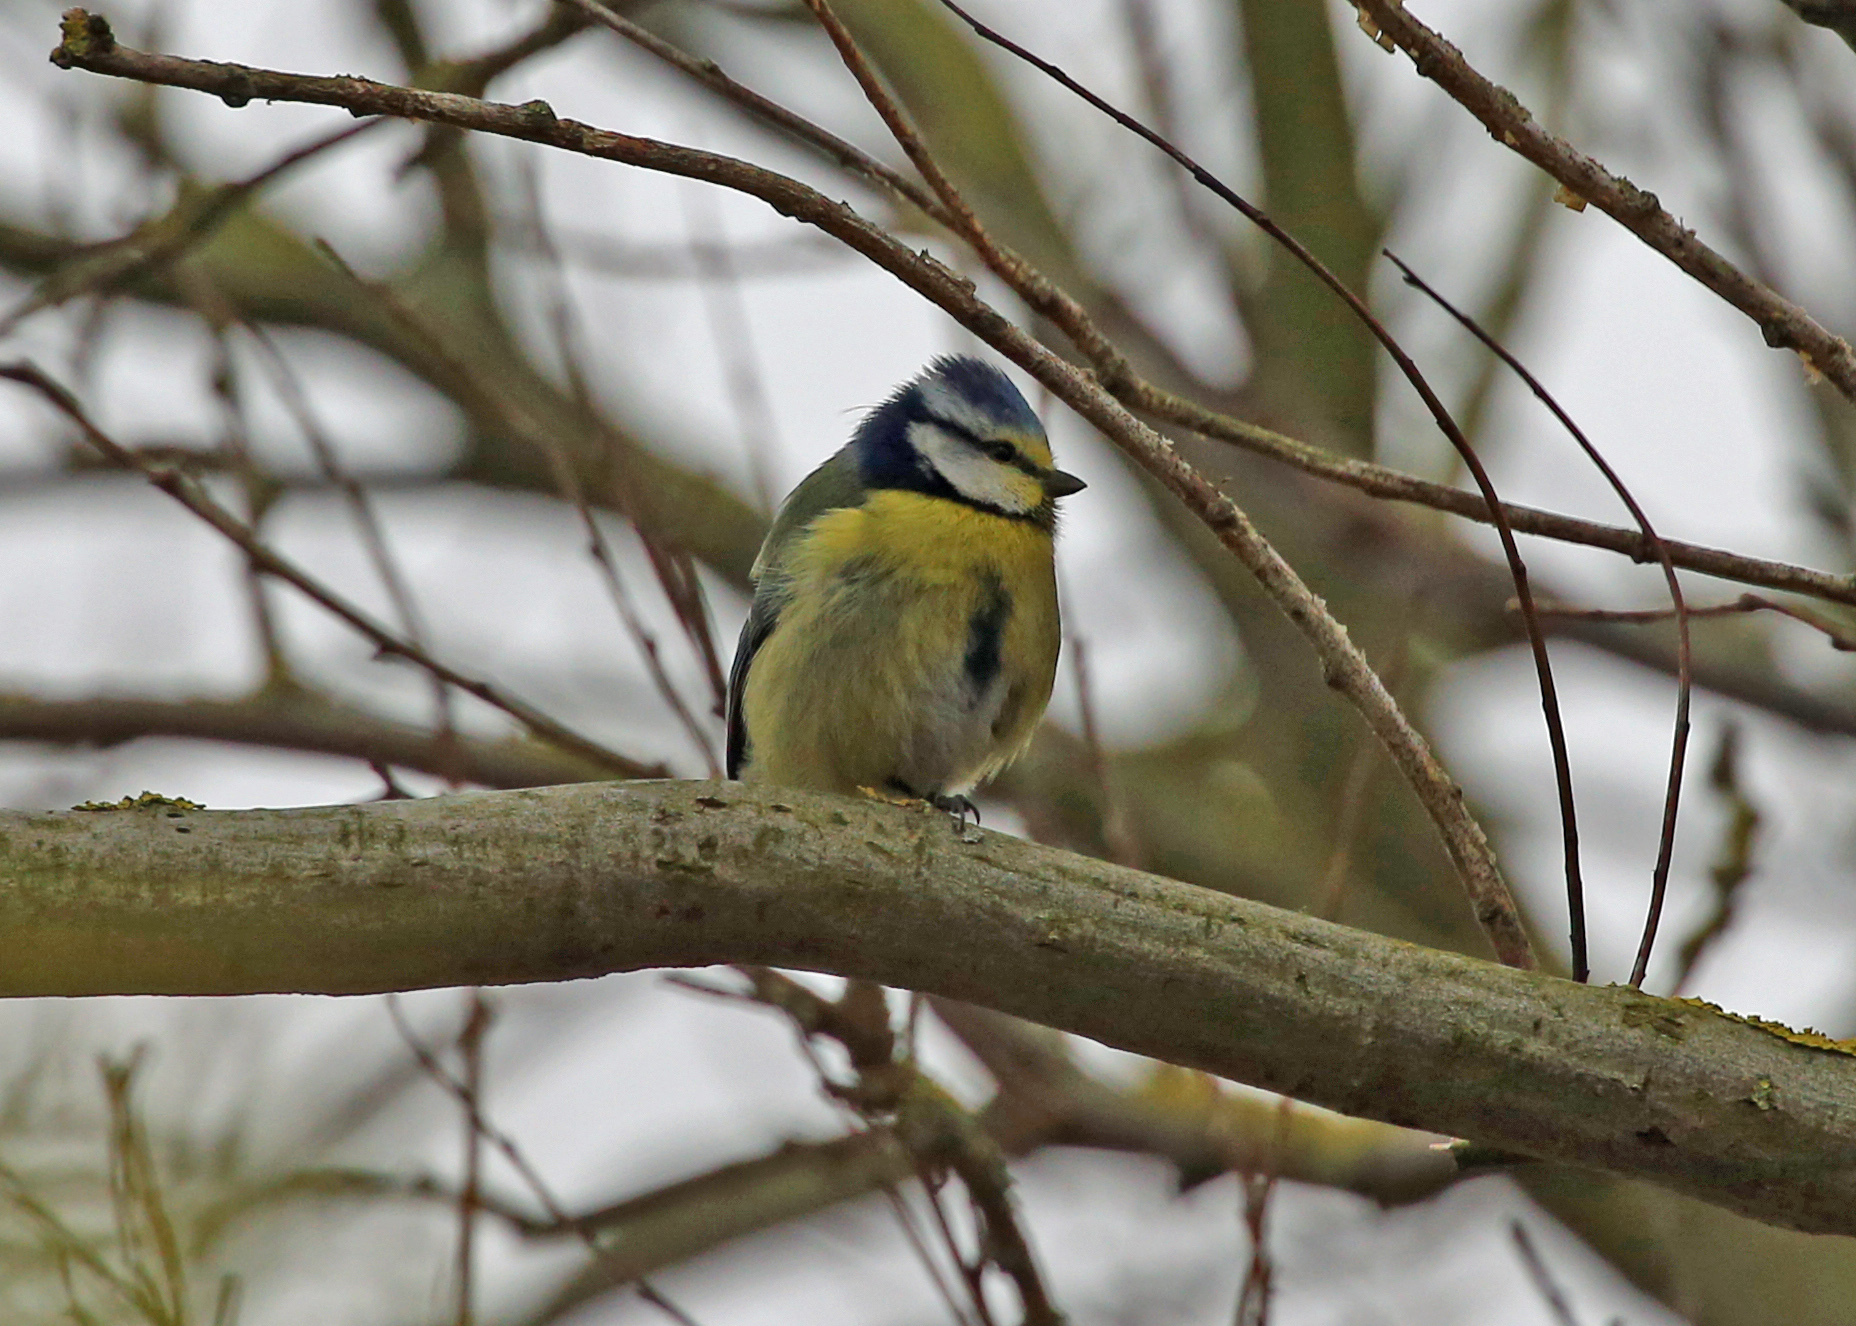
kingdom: Animalia
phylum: Chordata
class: Aves
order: Passeriformes
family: Paridae
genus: Cyanistes
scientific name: Cyanistes caeruleus
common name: Eurasian blue tit
